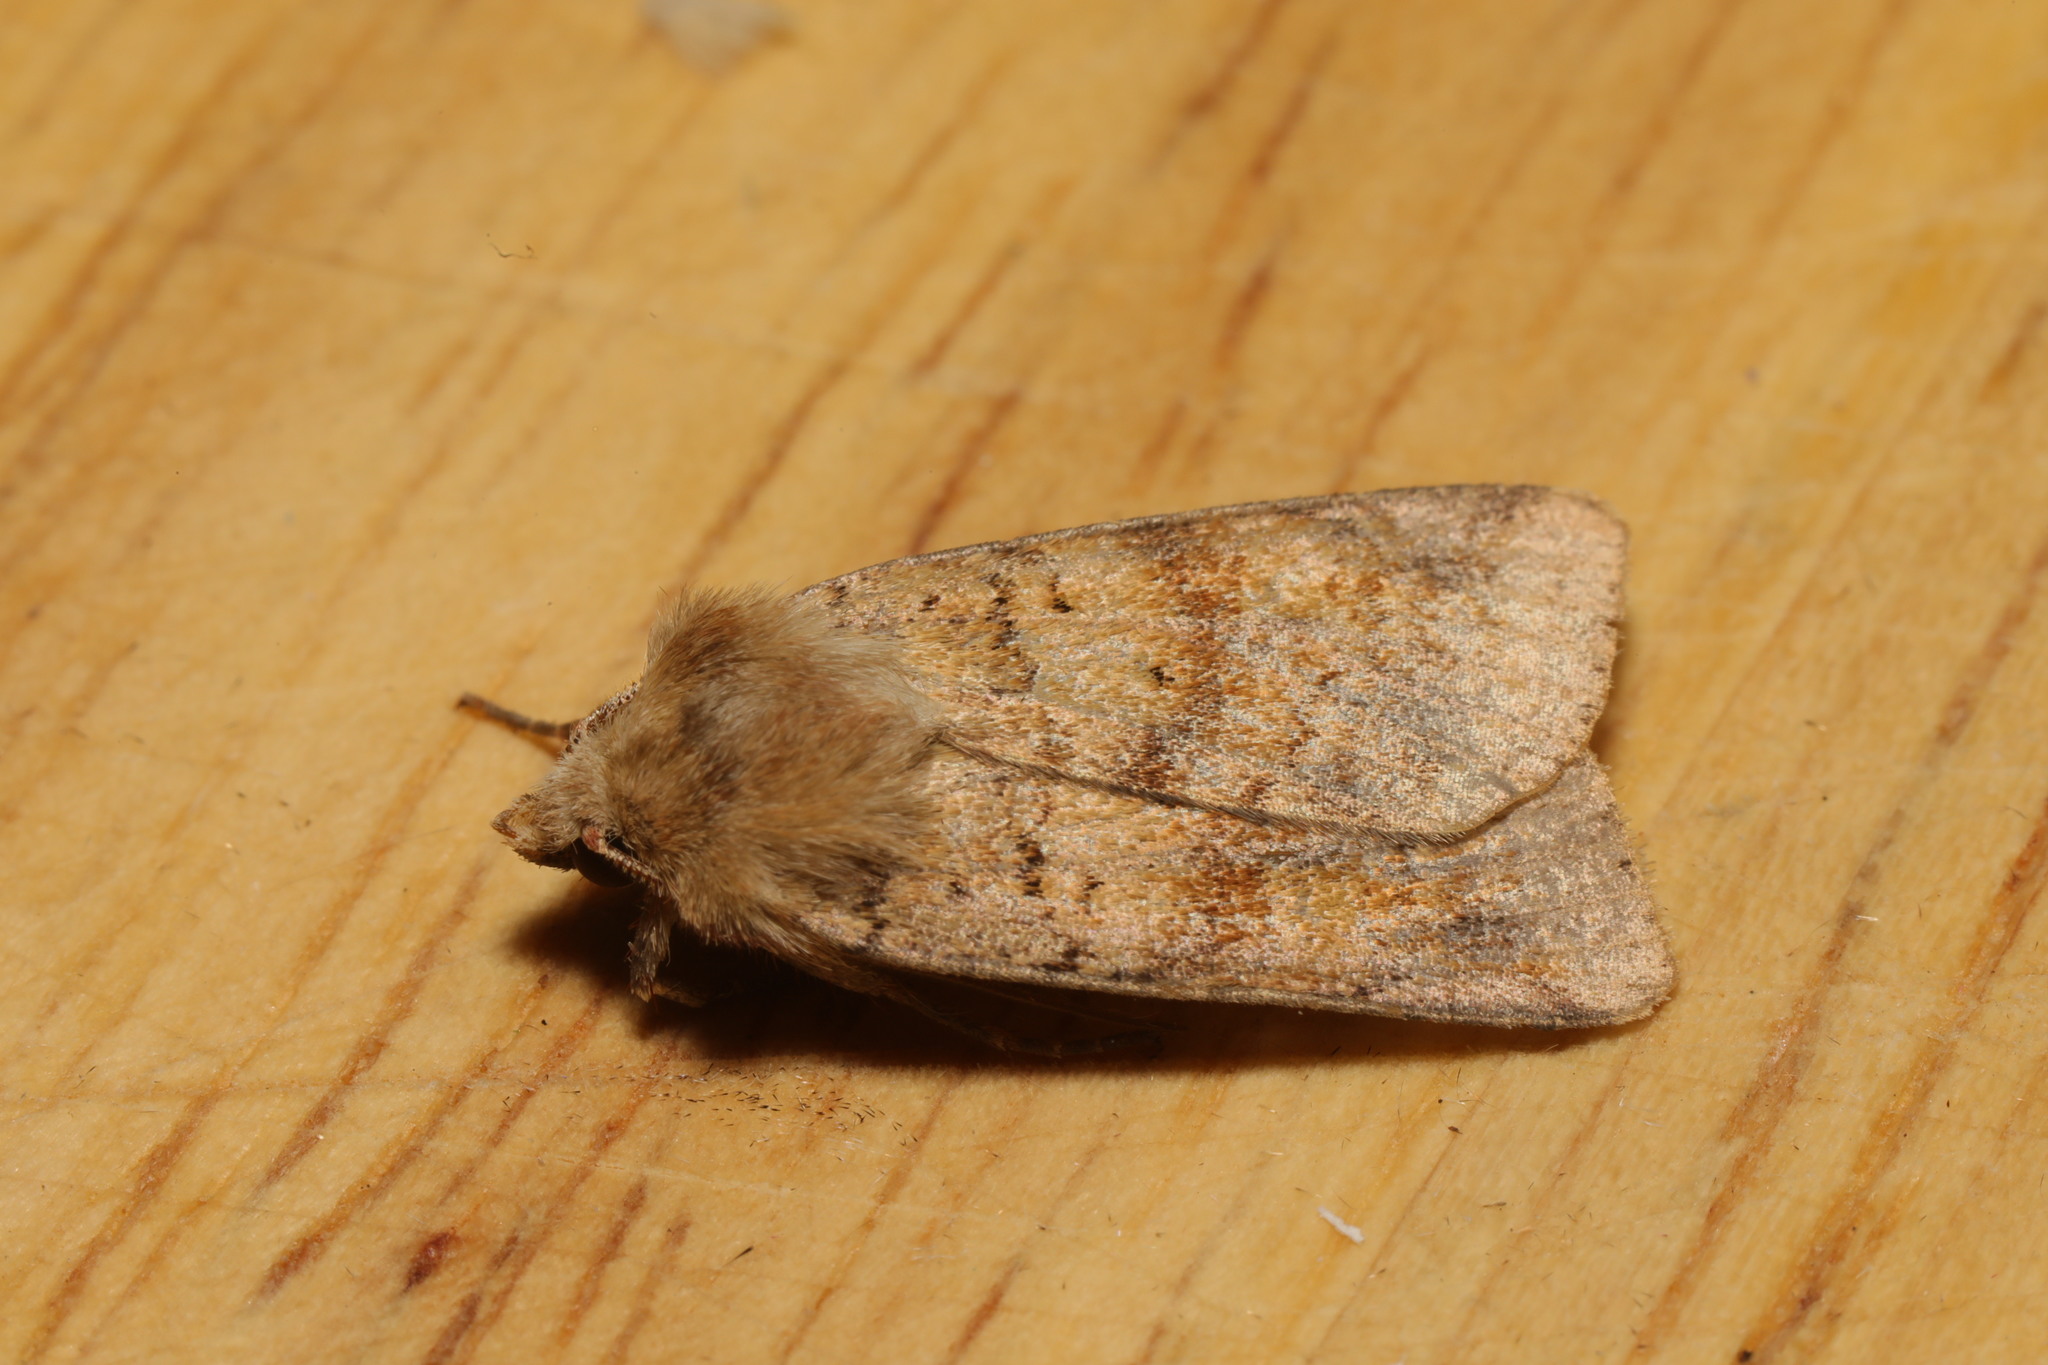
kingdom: Animalia
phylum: Arthropoda
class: Insecta
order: Lepidoptera
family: Noctuidae
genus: Diarsia
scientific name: Diarsia mendica
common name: Ingrailed clay
